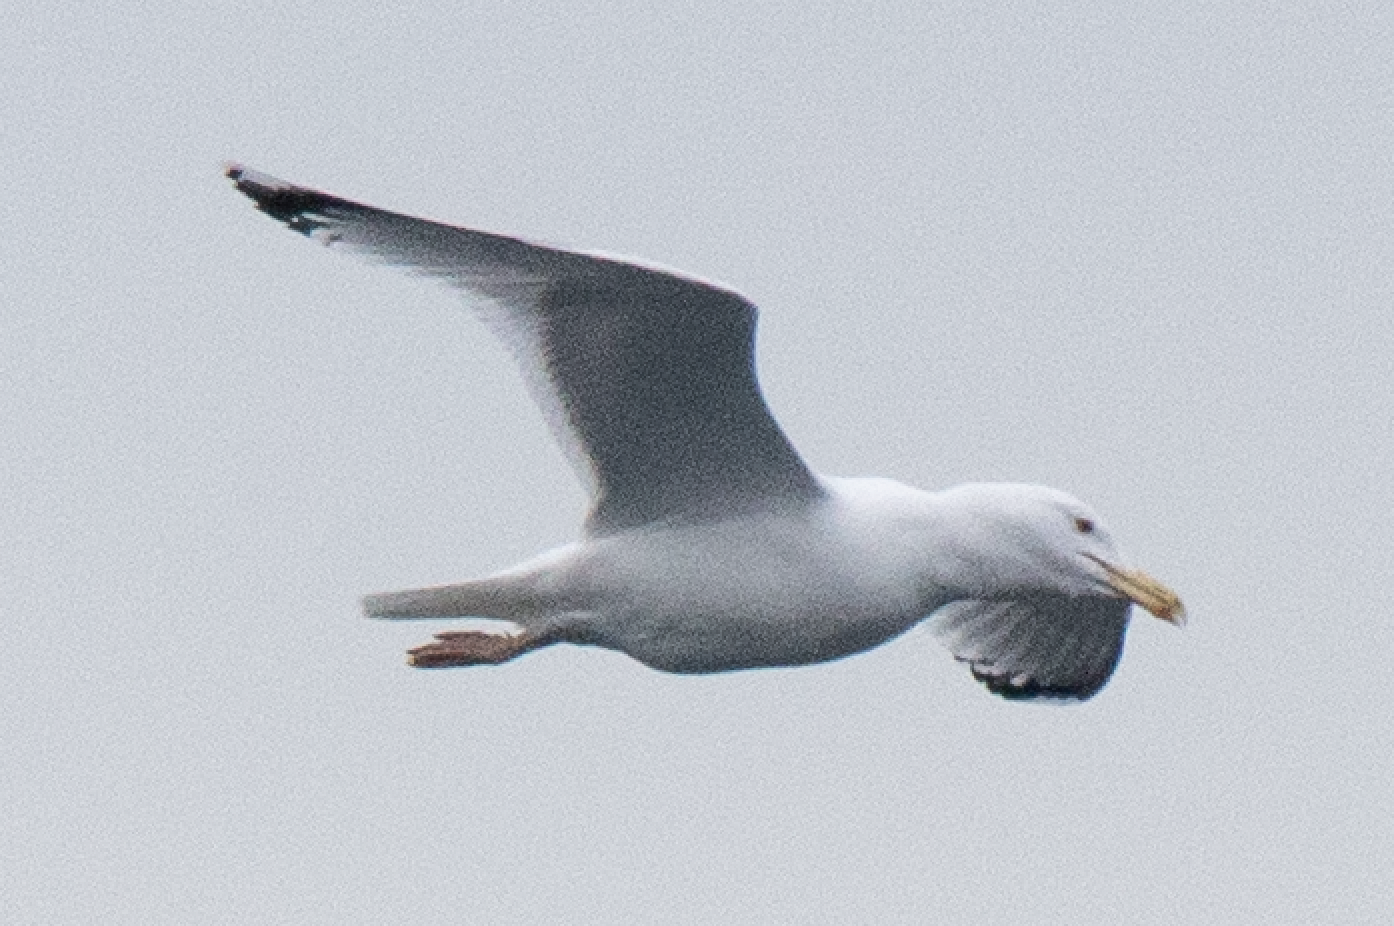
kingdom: Animalia
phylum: Chordata
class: Aves
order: Charadriiformes
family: Laridae
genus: Larus
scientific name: Larus michahellis
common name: Yellow-legged gull
